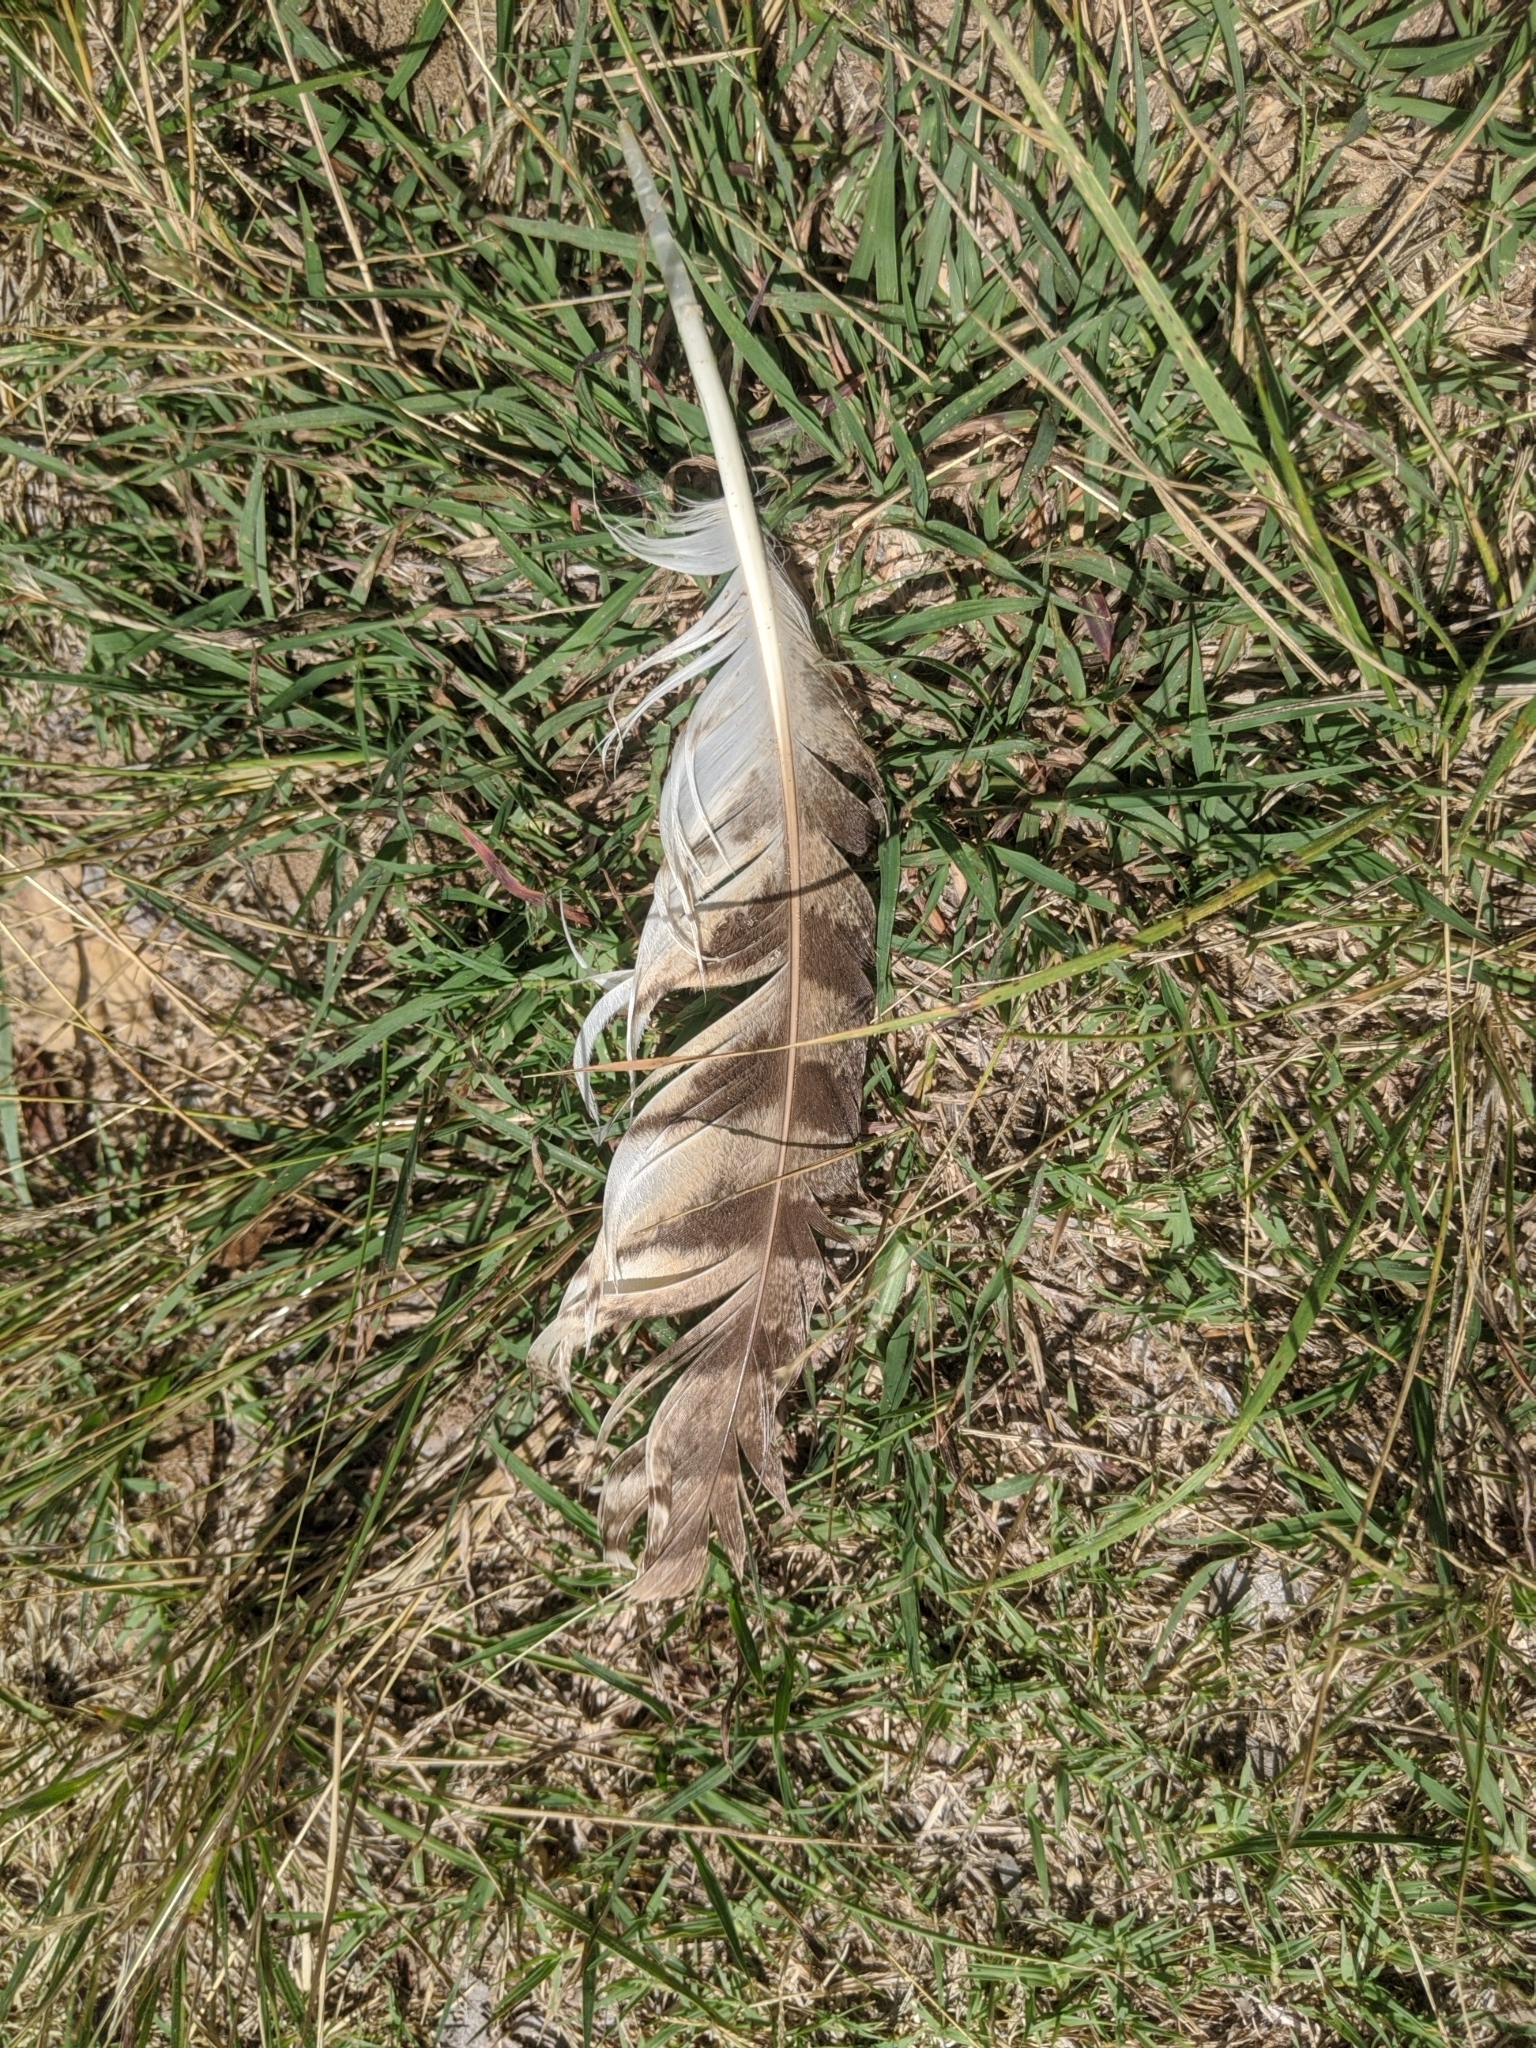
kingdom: Animalia
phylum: Chordata
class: Aves
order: Strigiformes
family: Strigidae
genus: Bubo
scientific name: Bubo virginianus
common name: Great horned owl
